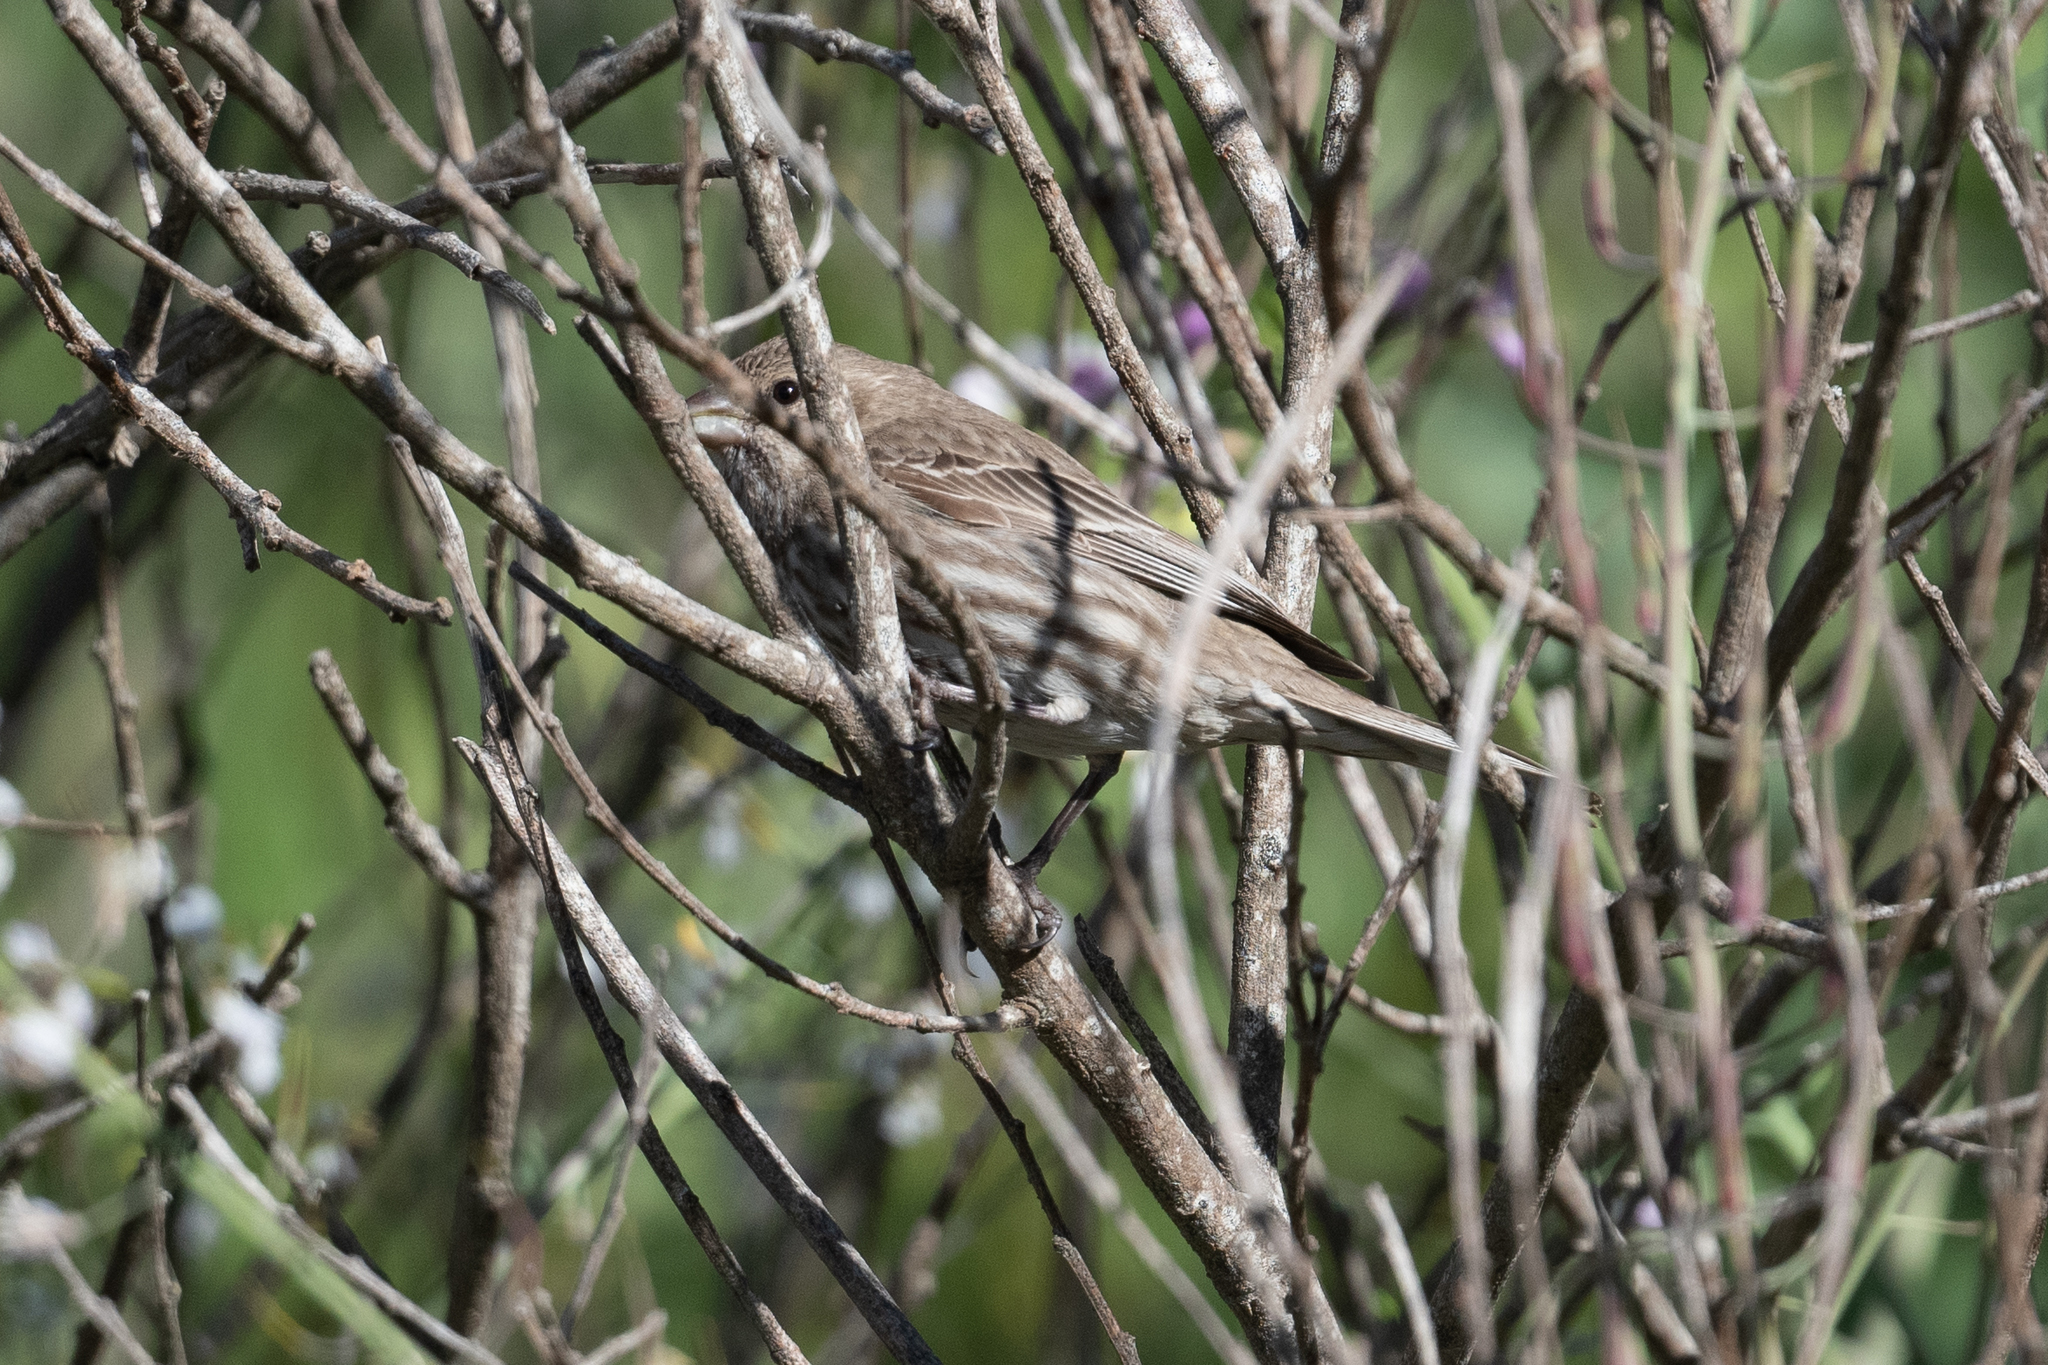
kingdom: Animalia
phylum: Chordata
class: Aves
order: Passeriformes
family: Fringillidae
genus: Haemorhous
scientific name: Haemorhous mexicanus
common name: House finch
